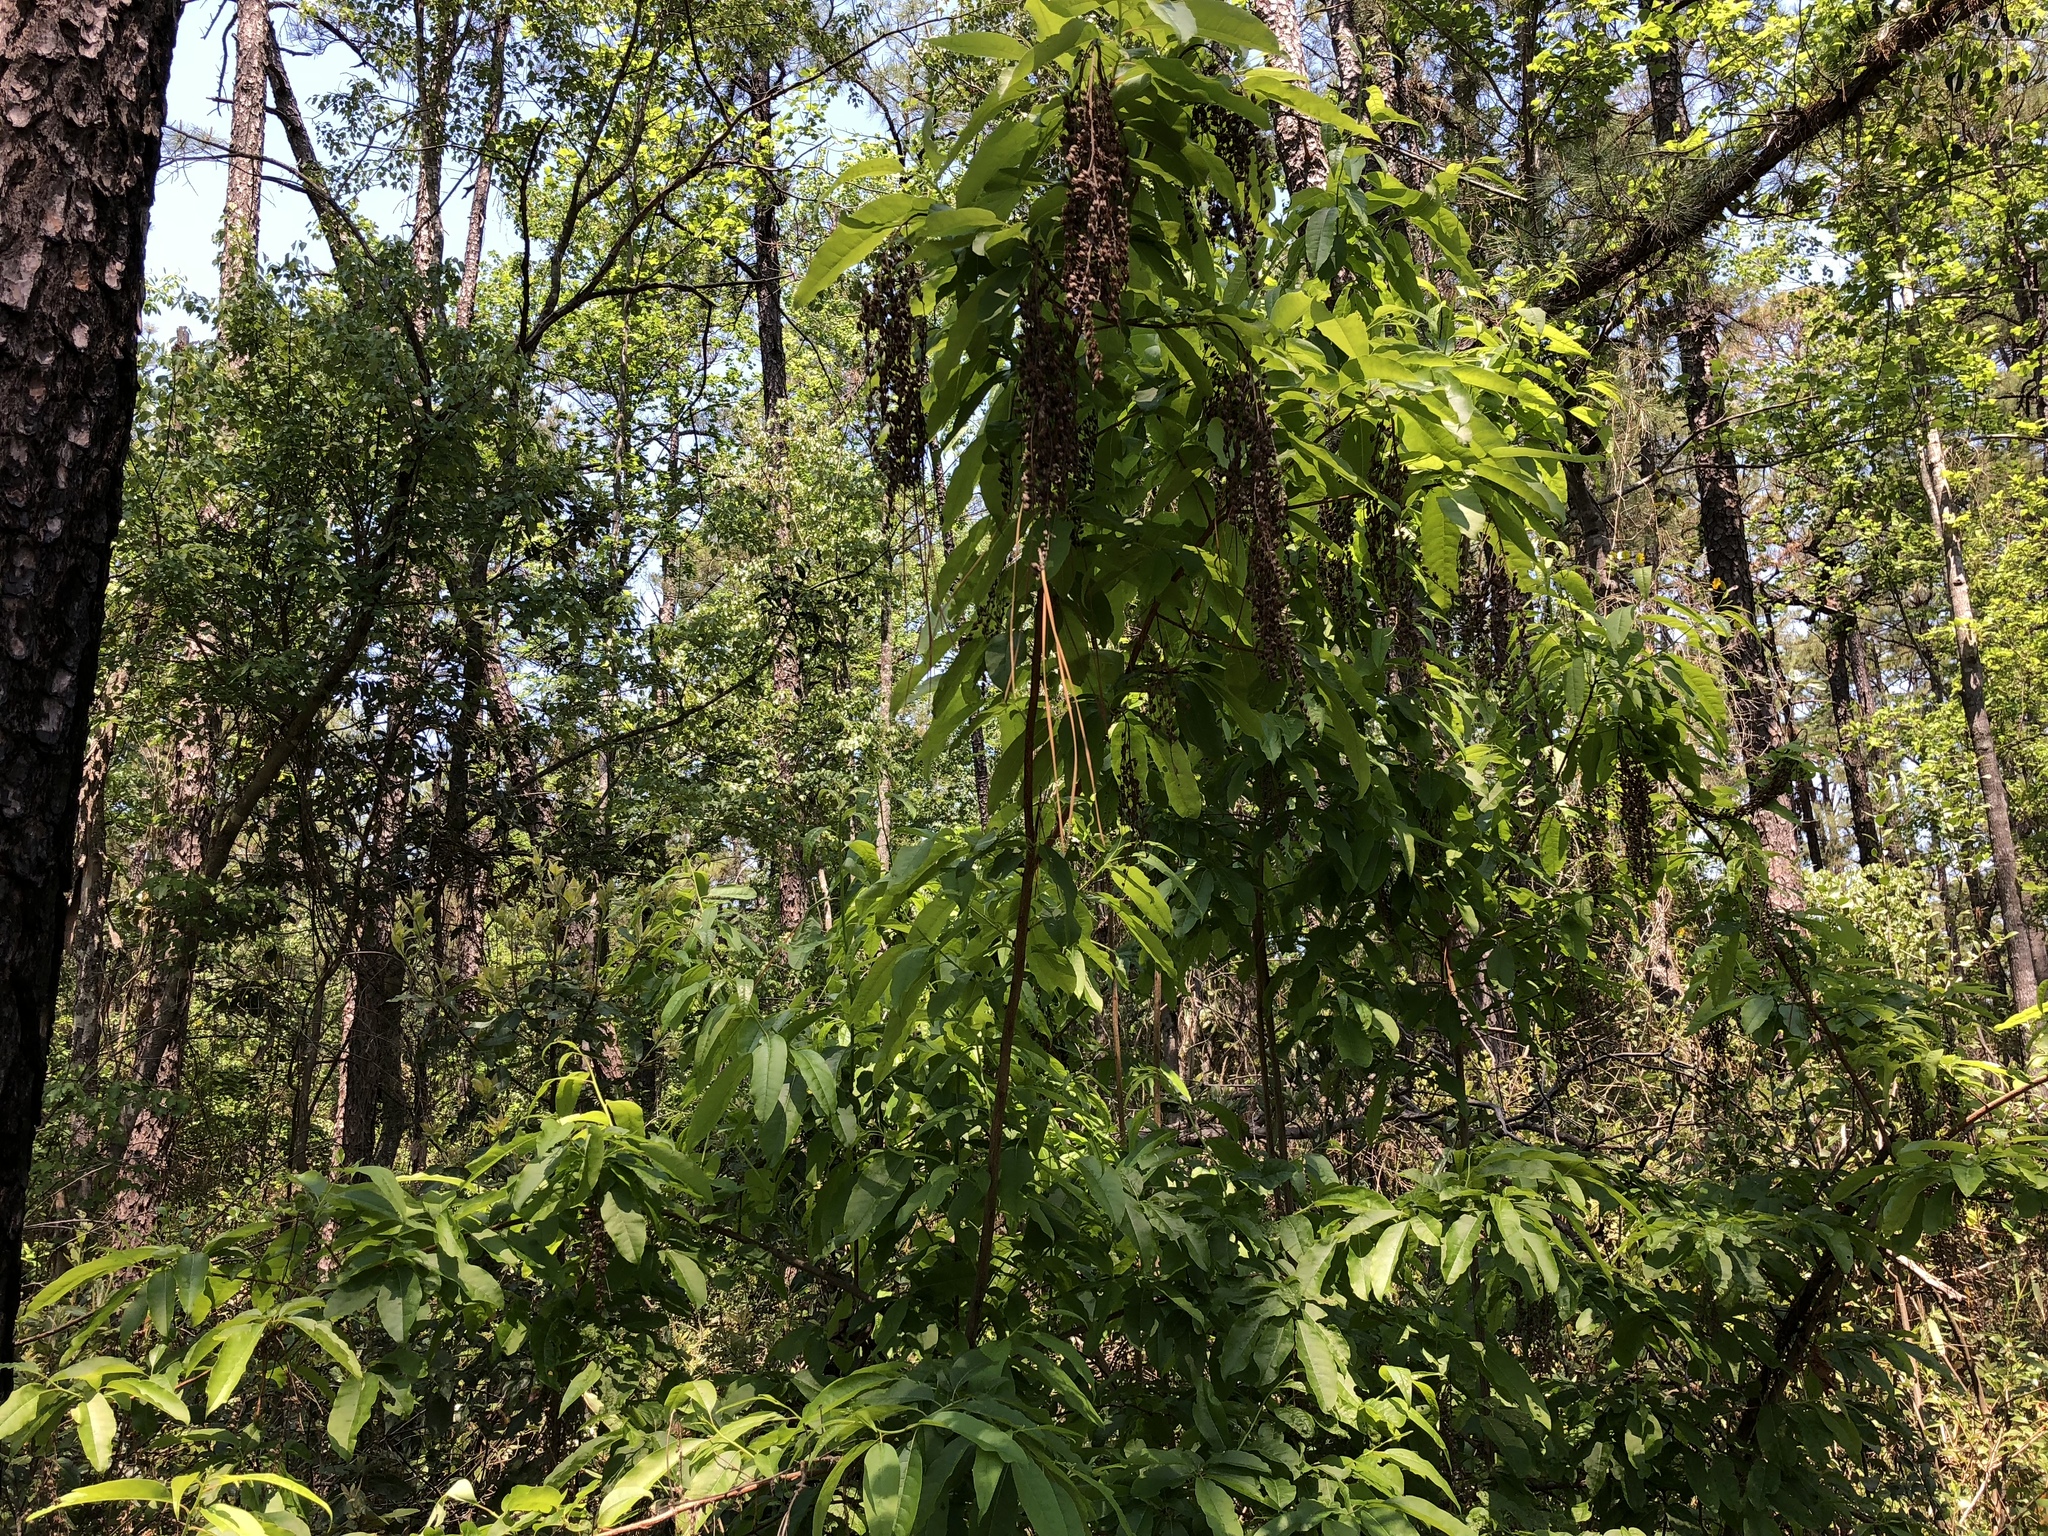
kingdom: Plantae
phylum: Tracheophyta
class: Magnoliopsida
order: Ericales
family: Ericaceae
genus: Oxydendrum
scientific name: Oxydendrum arboreum
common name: Sourwood
